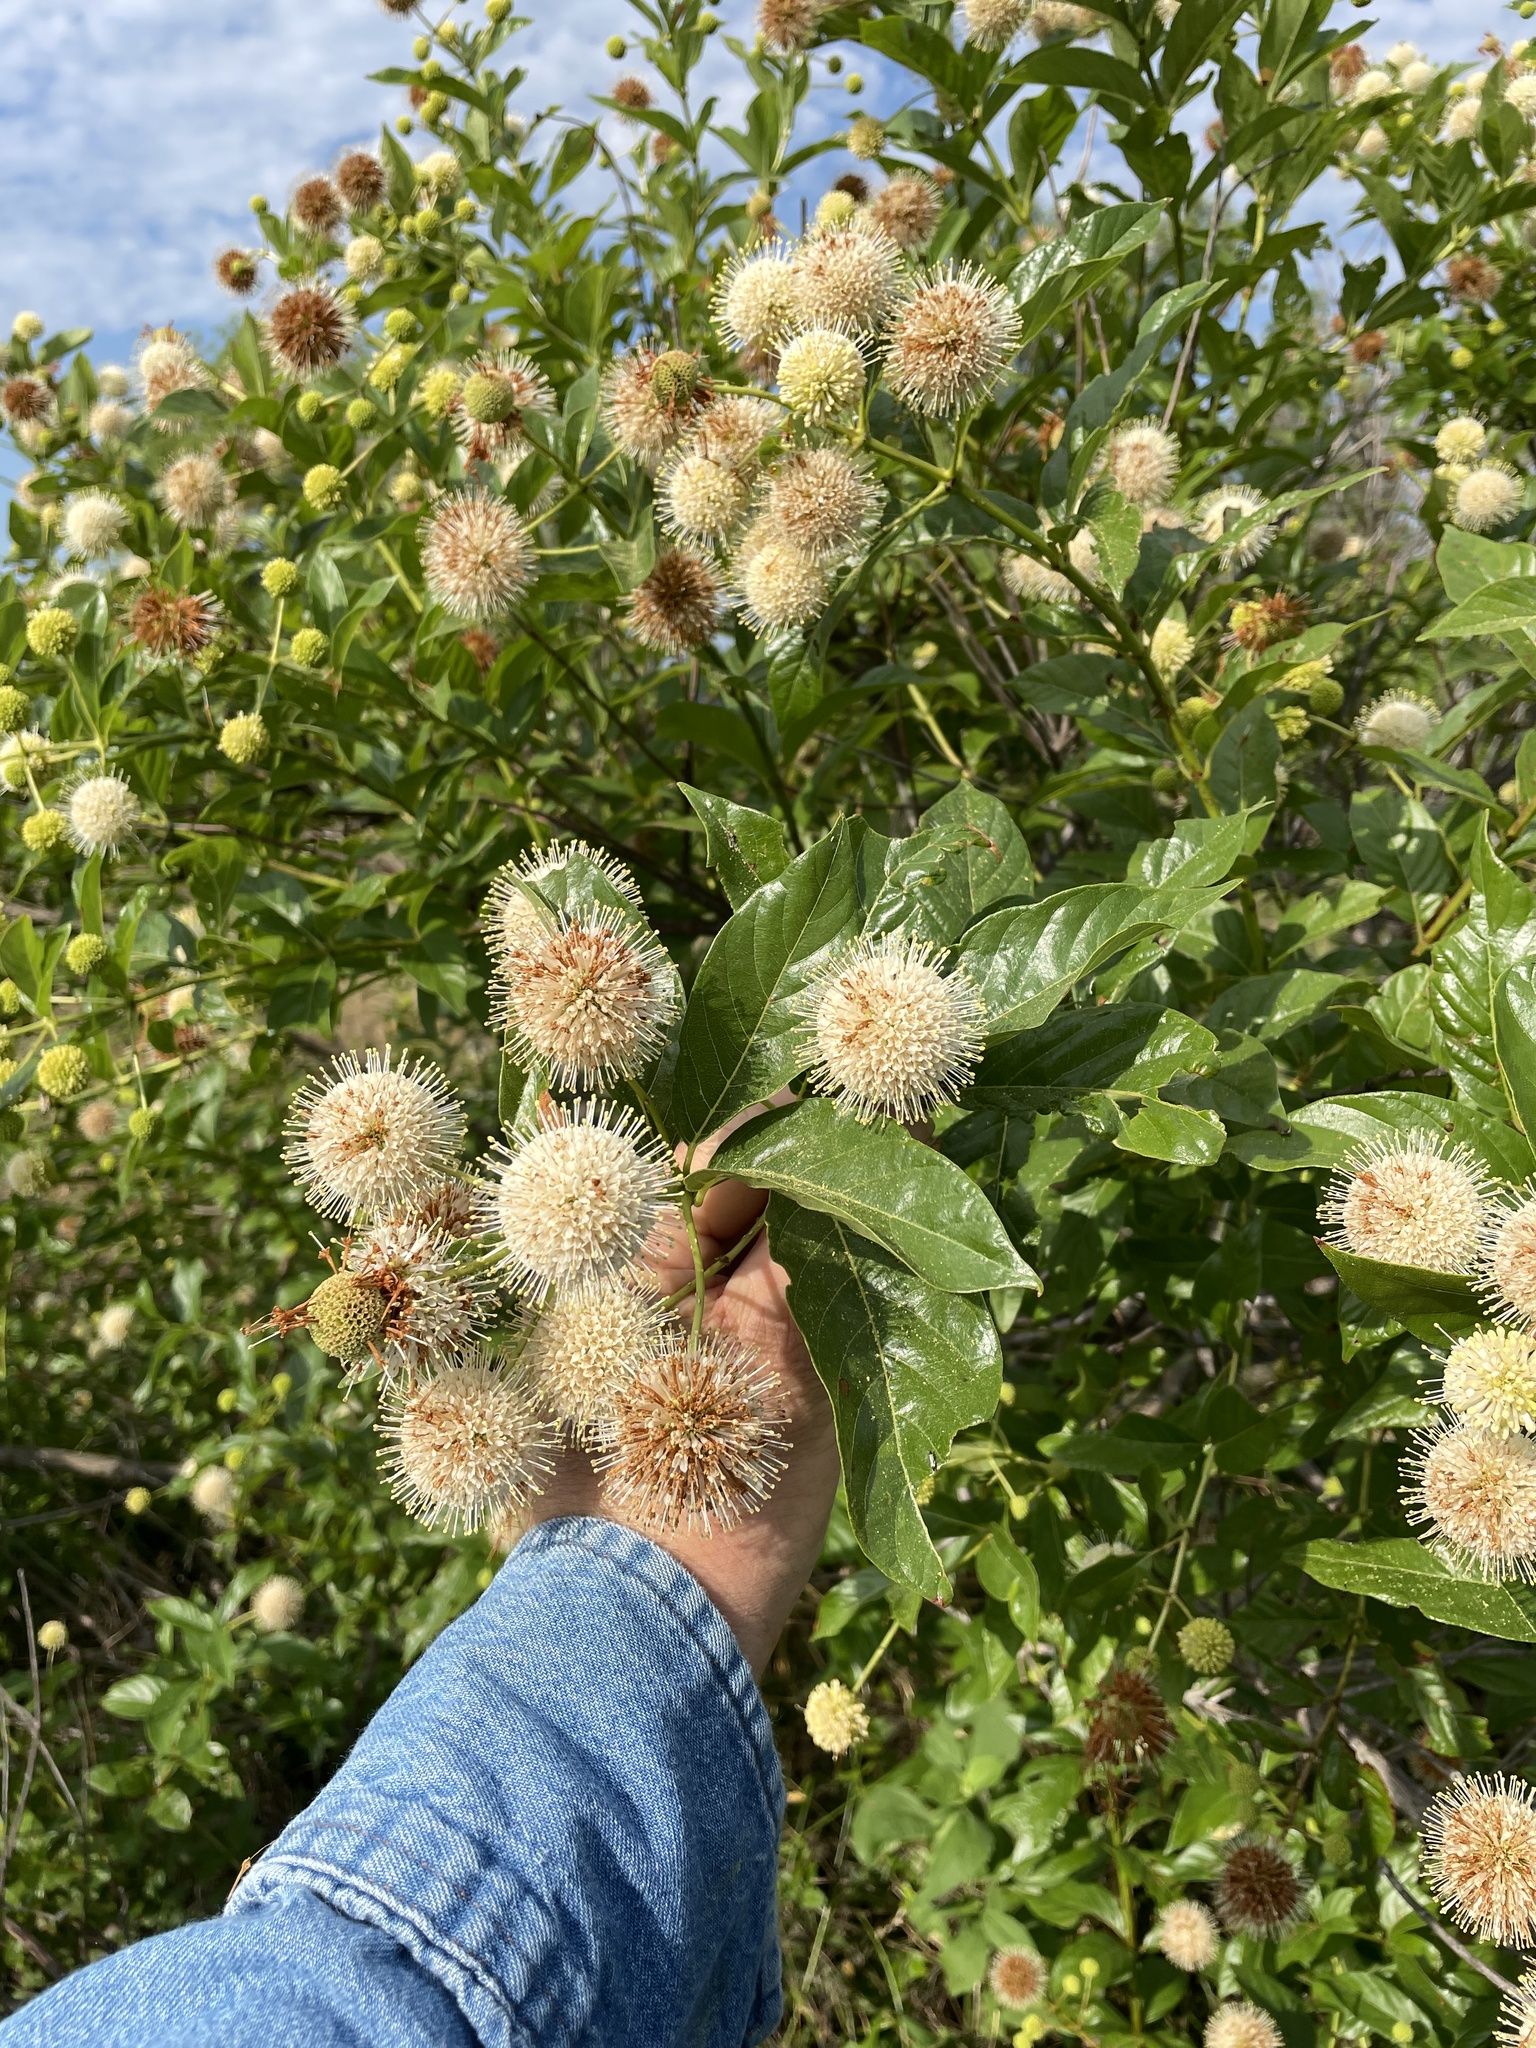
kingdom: Plantae
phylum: Tracheophyta
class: Magnoliopsida
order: Gentianales
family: Rubiaceae
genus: Cephalanthus
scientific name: Cephalanthus occidentalis
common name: Button-willow
